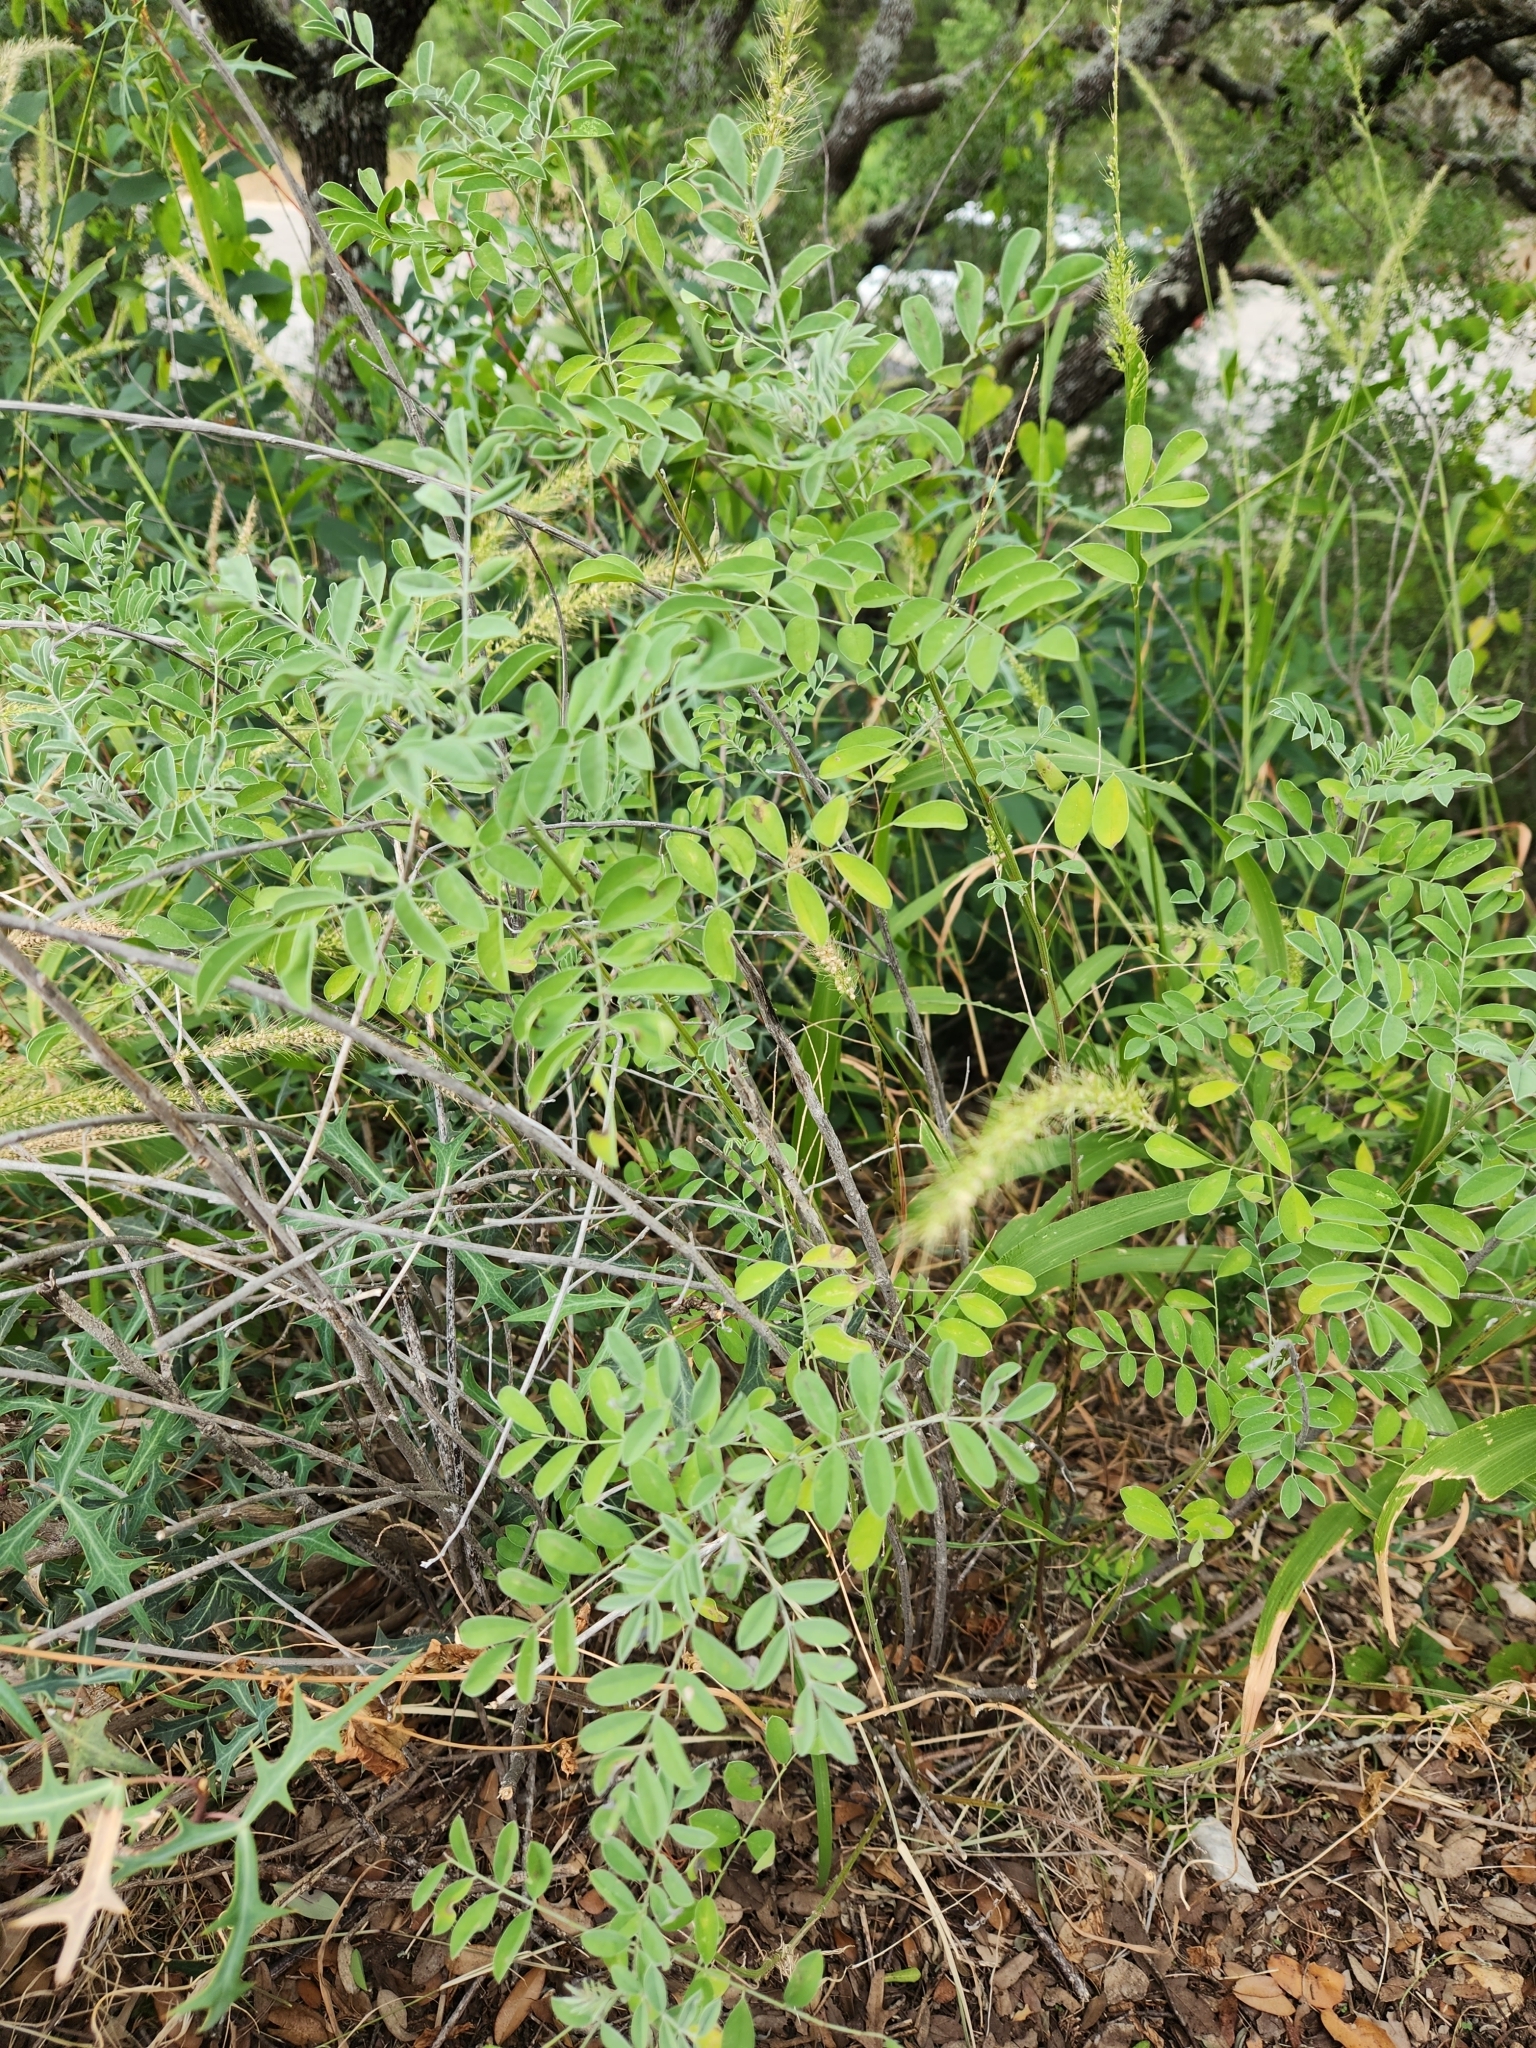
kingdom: Plantae
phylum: Tracheophyta
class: Magnoliopsida
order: Fabales
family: Fabaceae
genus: Indigofera
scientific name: Indigofera lindheimeriana
